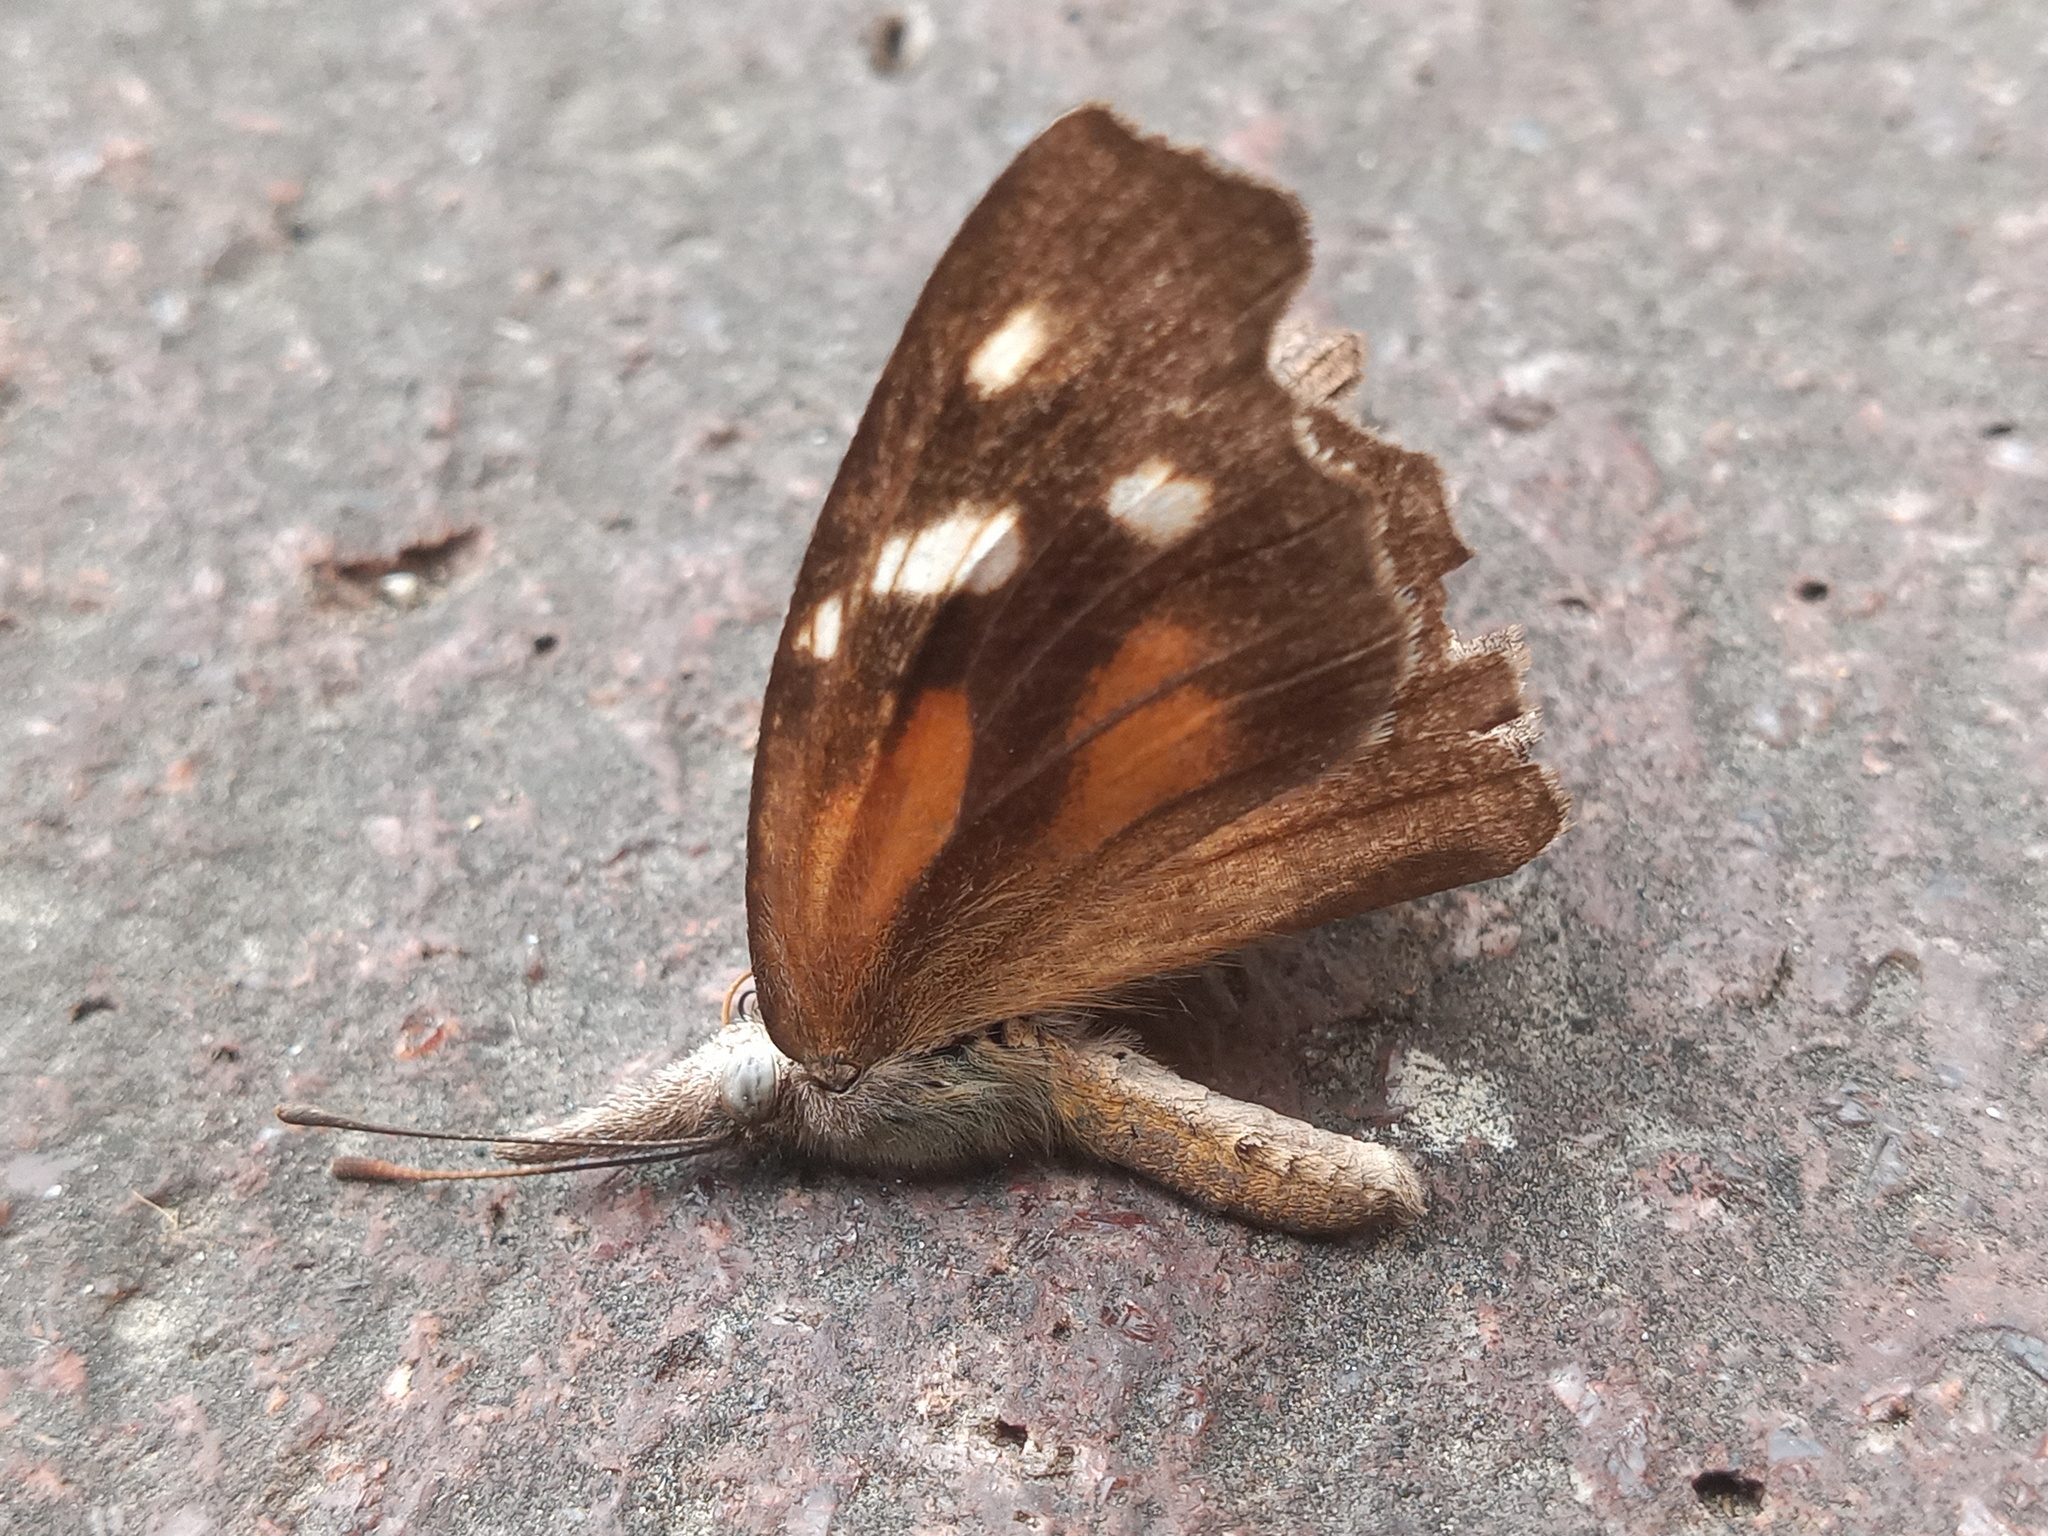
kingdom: Animalia
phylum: Arthropoda
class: Insecta
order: Lepidoptera
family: Nymphalidae
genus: Libytheana
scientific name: Libytheana carinenta
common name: American snout
